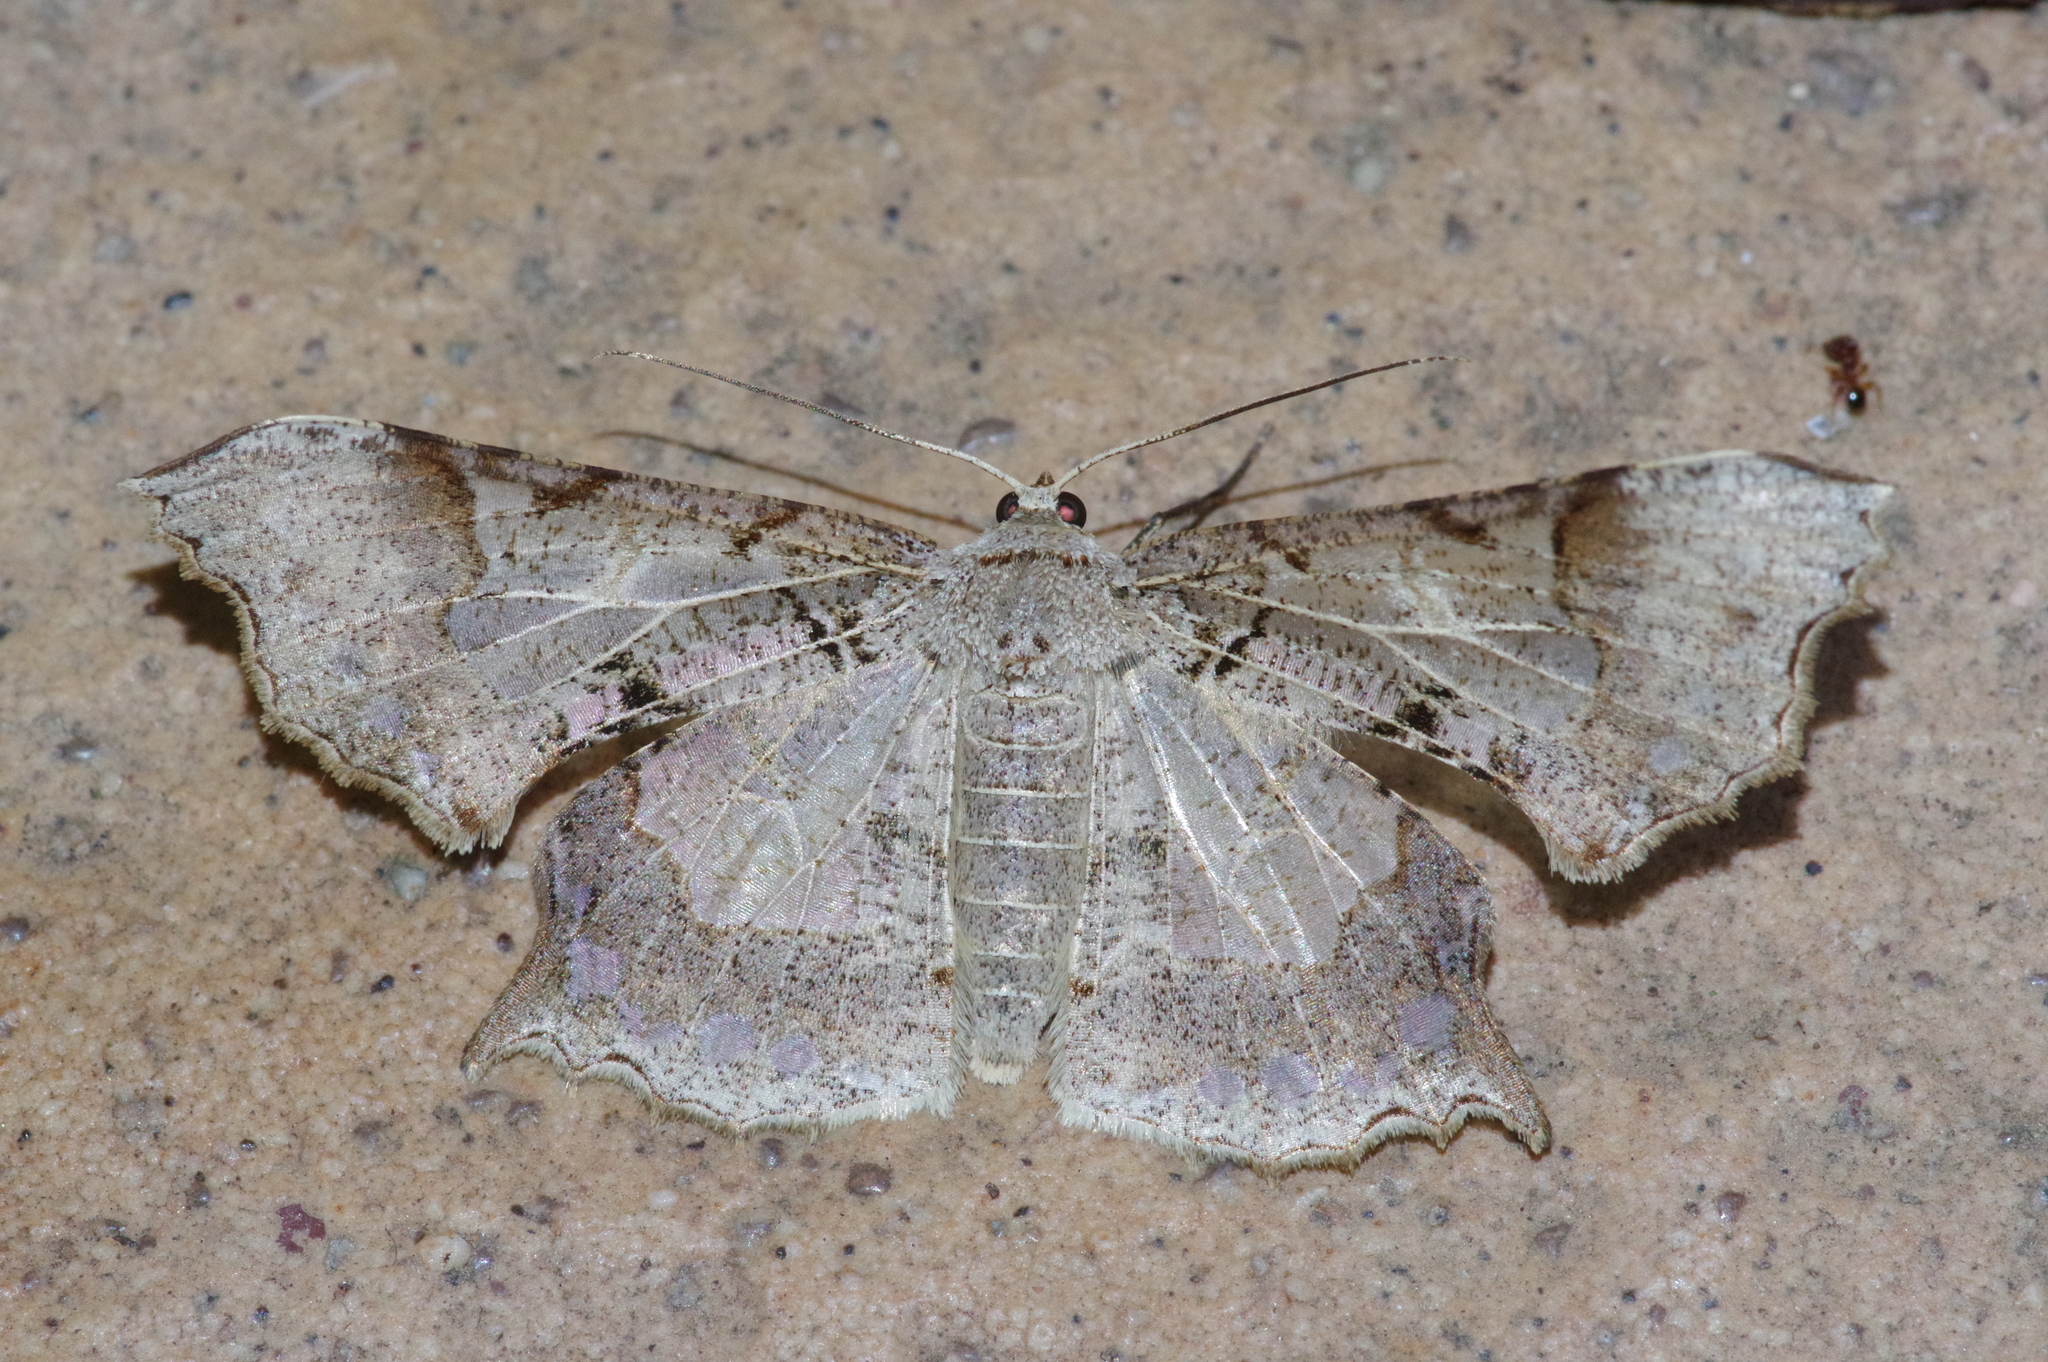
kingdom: Animalia
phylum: Arthropoda
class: Insecta
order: Lepidoptera
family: Geometridae
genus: Krananda
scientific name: Krananda semihyalina
